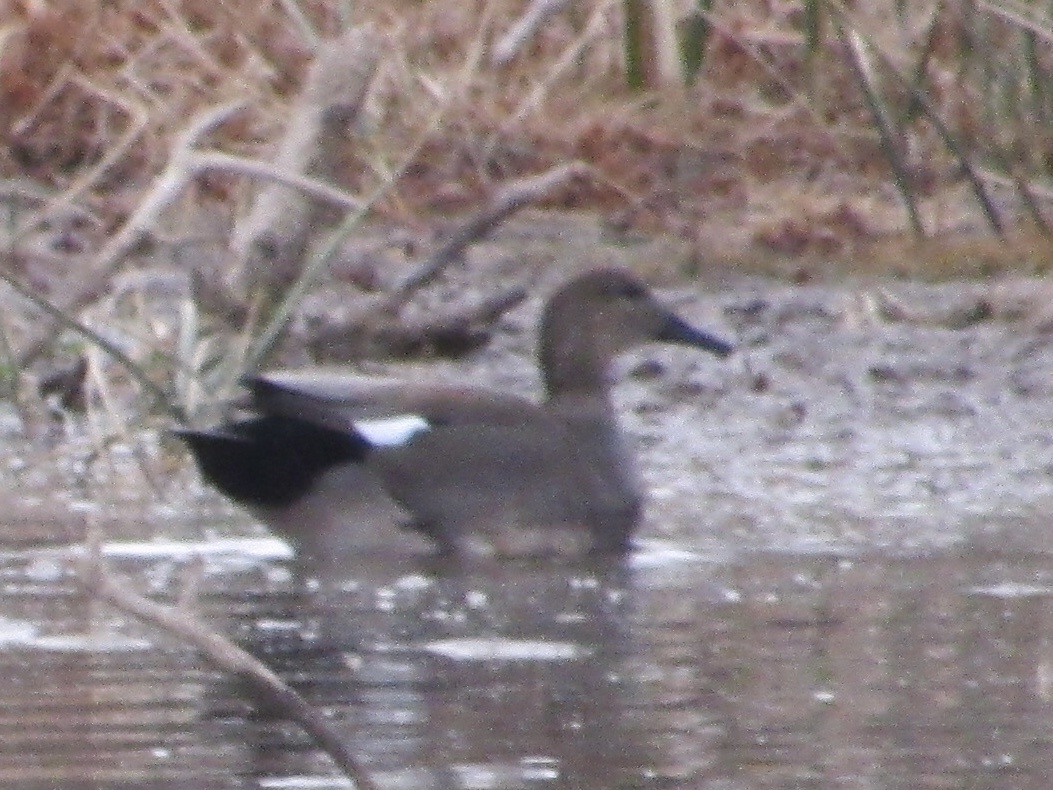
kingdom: Animalia
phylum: Chordata
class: Aves
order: Anseriformes
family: Anatidae
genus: Mareca
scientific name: Mareca strepera
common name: Gadwall
